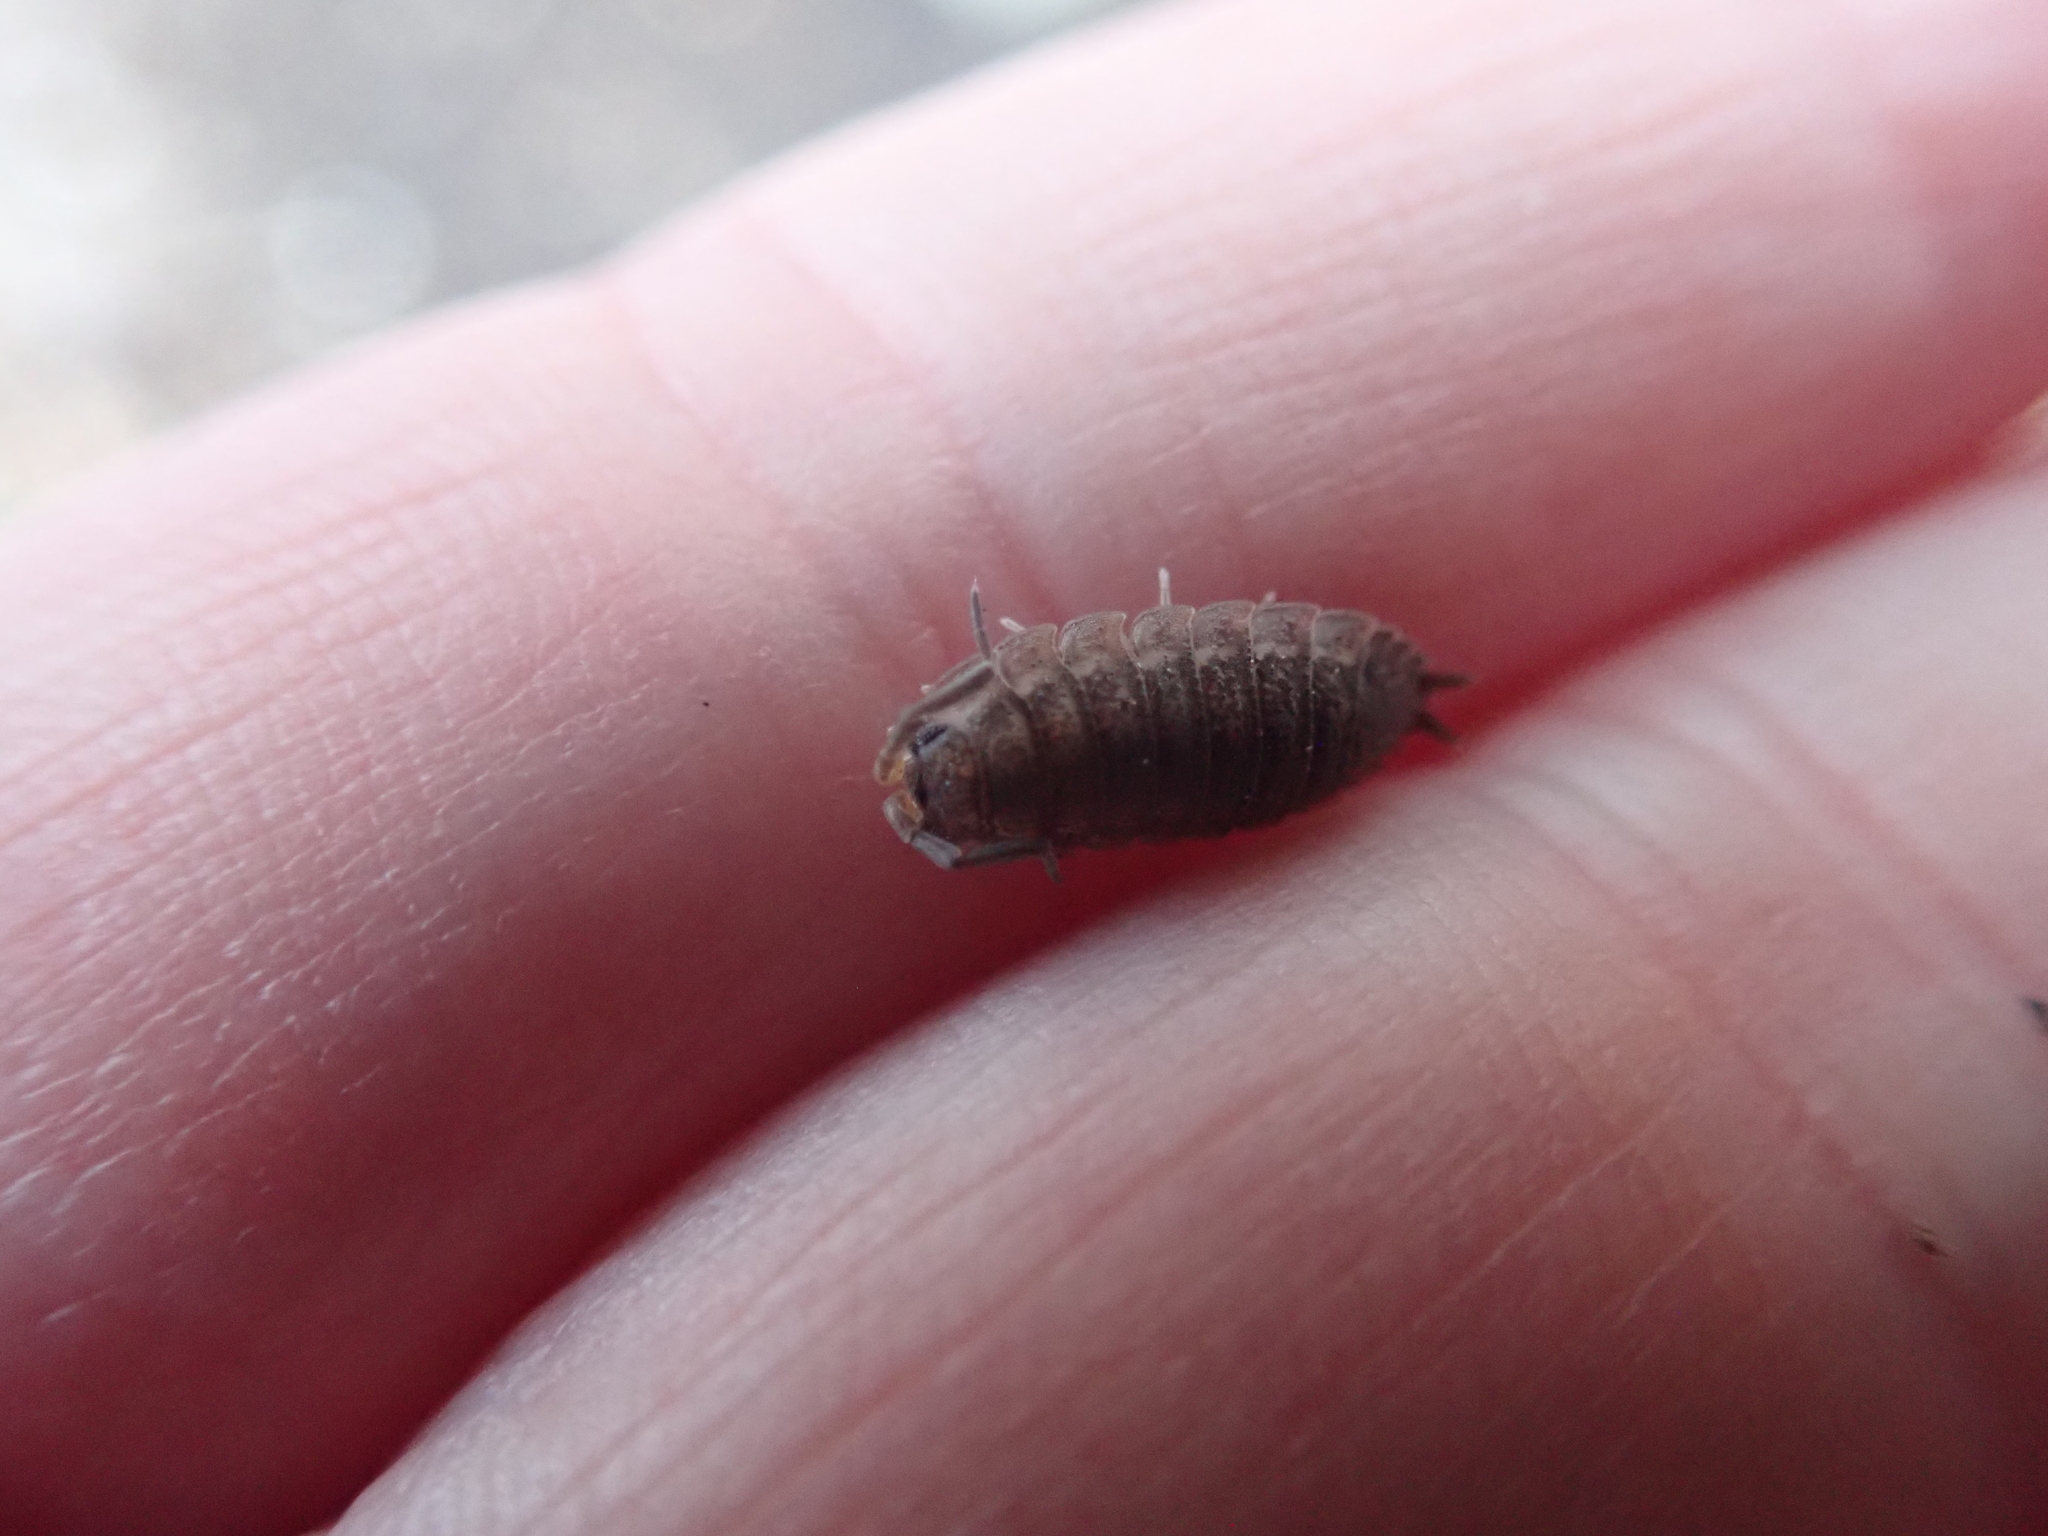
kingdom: Animalia
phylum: Arthropoda
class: Malacostraca
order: Isopoda
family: Porcellionidae
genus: Porcellio
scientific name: Porcellio scaber
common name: Common rough woodlouse
